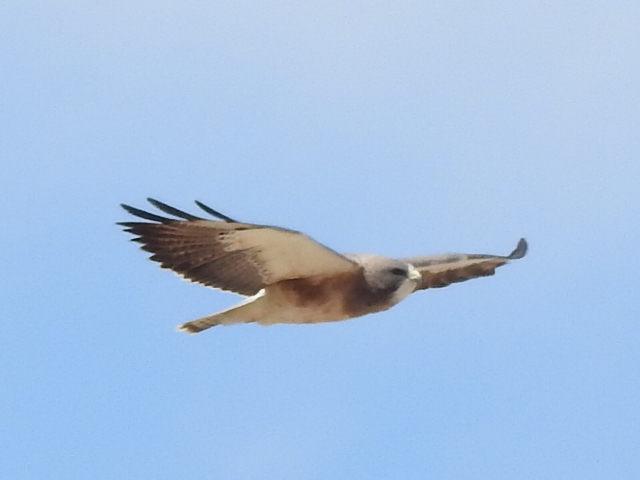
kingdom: Animalia
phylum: Chordata
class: Aves
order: Accipitriformes
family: Accipitridae
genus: Buteo
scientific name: Buteo swainsoni
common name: Swainson's hawk
